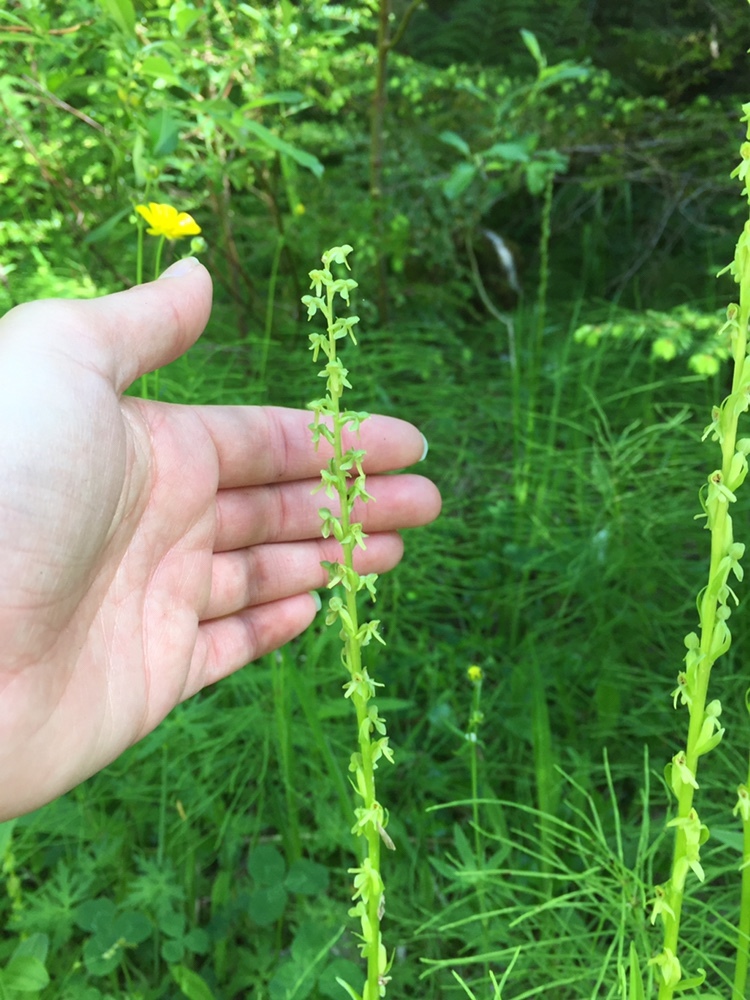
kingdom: Plantae
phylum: Tracheophyta
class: Liliopsida
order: Asparagales
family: Orchidaceae
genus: Platanthera
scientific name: Platanthera stricta
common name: Slender bog orchid
